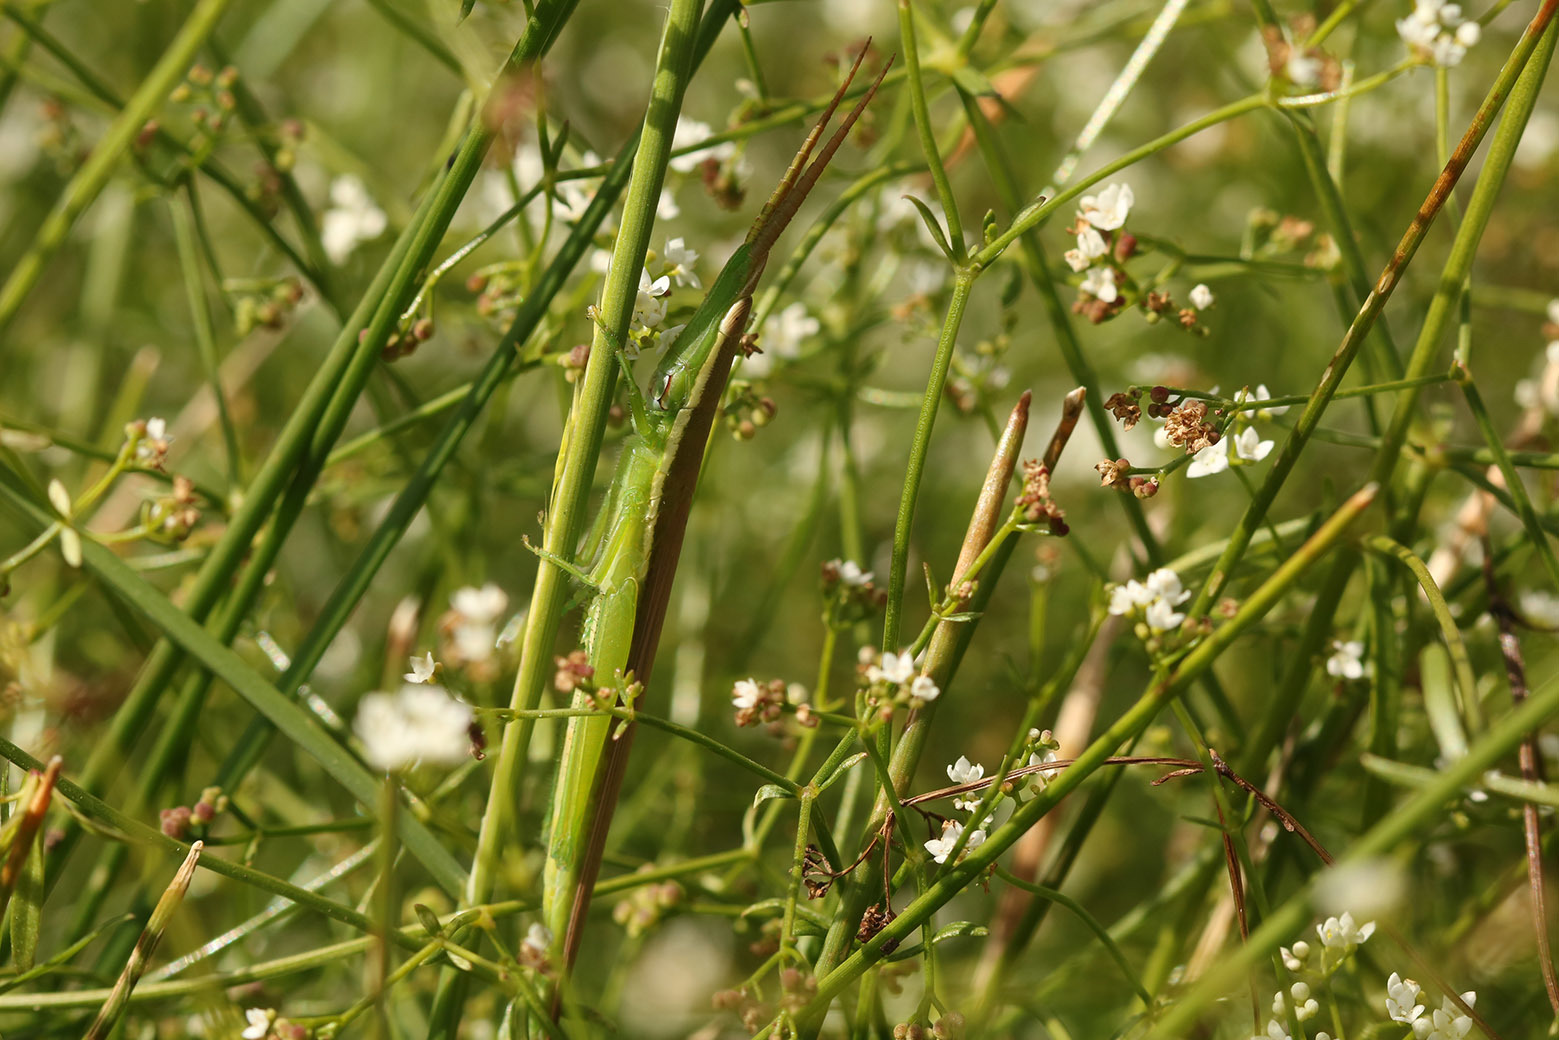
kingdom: Animalia
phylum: Arthropoda
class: Insecta
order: Orthoptera
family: Acrididae
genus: Leptysma
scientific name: Leptysma argentina
